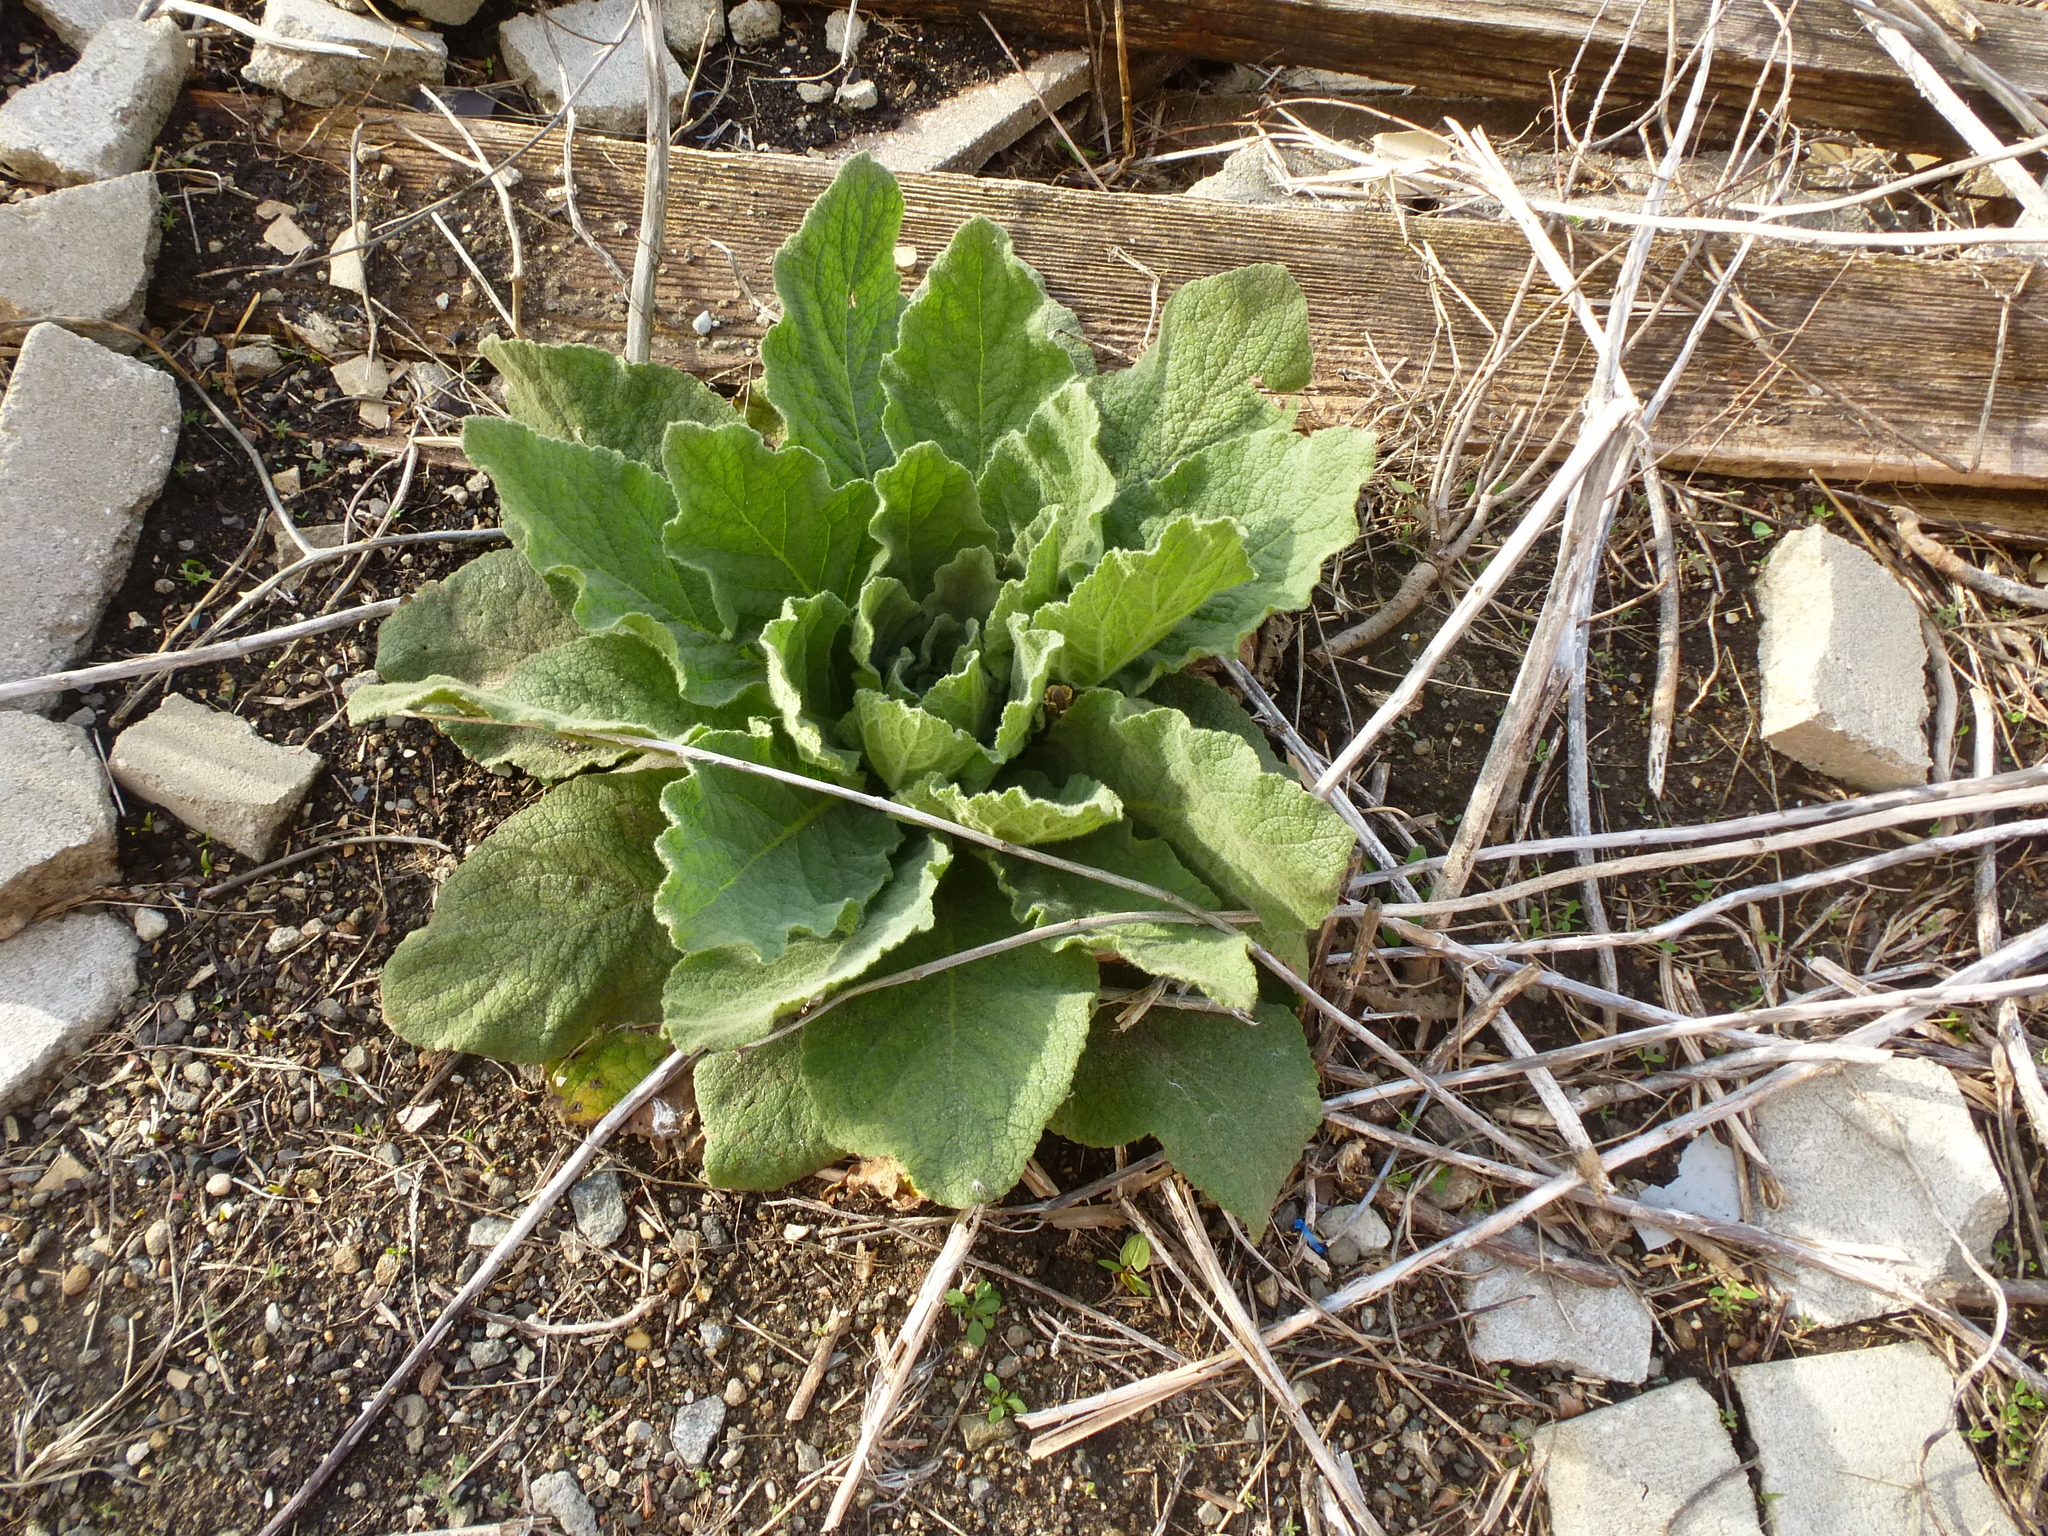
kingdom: Plantae
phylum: Tracheophyta
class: Magnoliopsida
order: Lamiales
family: Scrophulariaceae
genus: Verbascum
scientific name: Verbascum thapsus
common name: Common mullein
